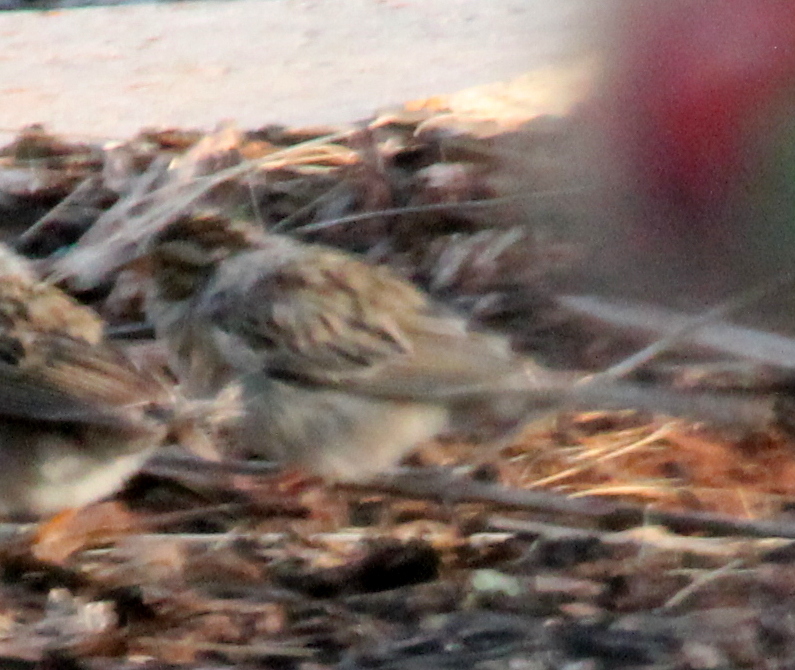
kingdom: Animalia
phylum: Chordata
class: Aves
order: Passeriformes
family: Passerellidae
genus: Spizella
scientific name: Spizella pallida
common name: Clay-colored sparrow
